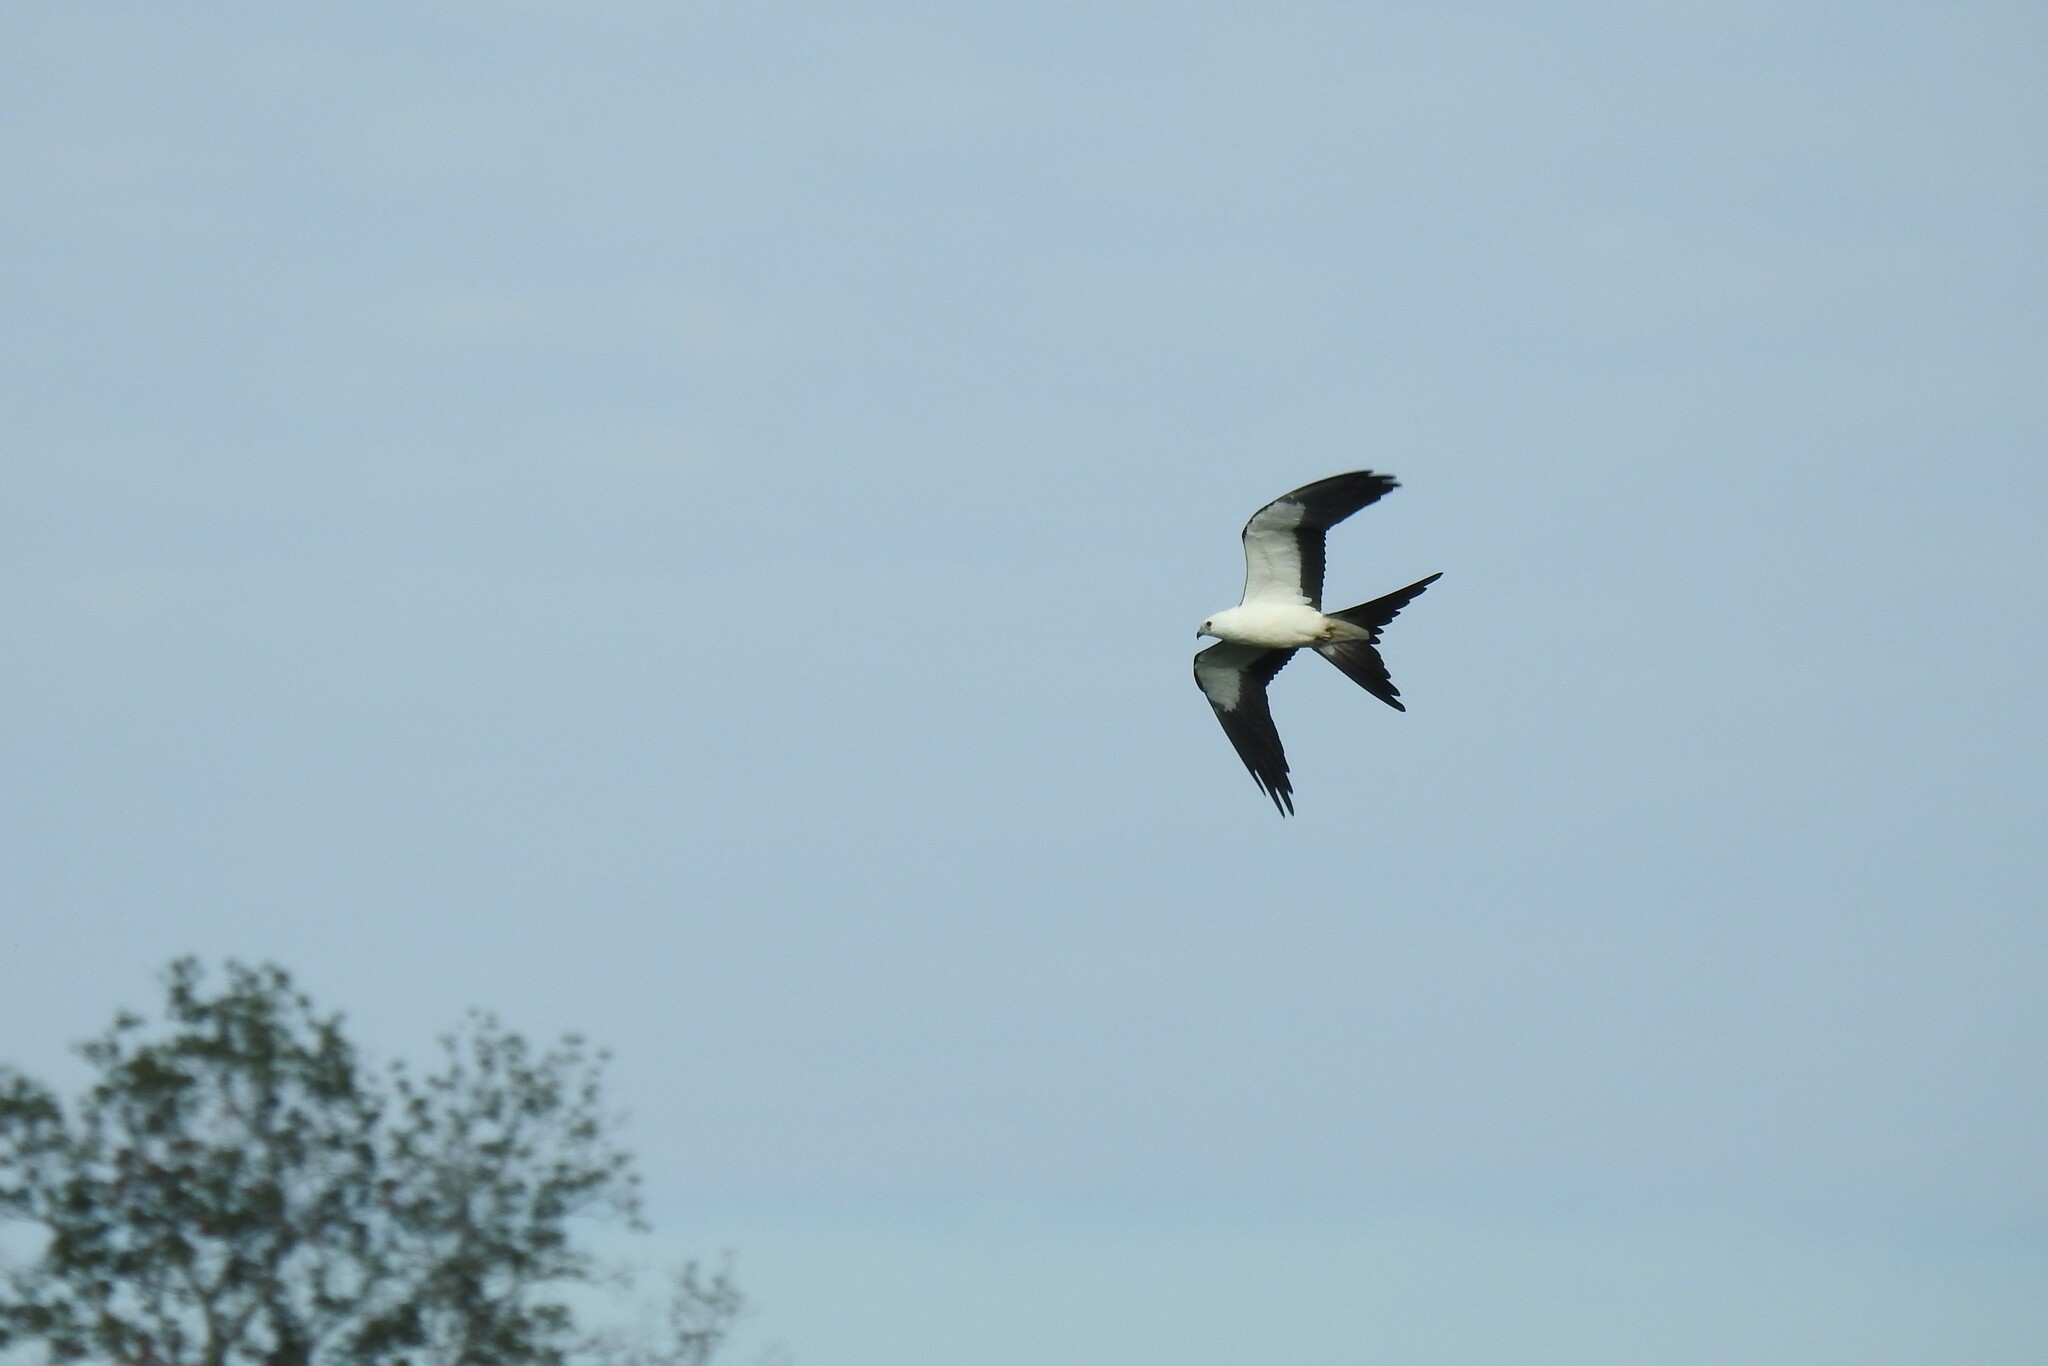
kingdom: Animalia
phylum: Chordata
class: Aves
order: Accipitriformes
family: Accipitridae
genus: Elanoides
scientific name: Elanoides forficatus
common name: Swallow-tailed kite
